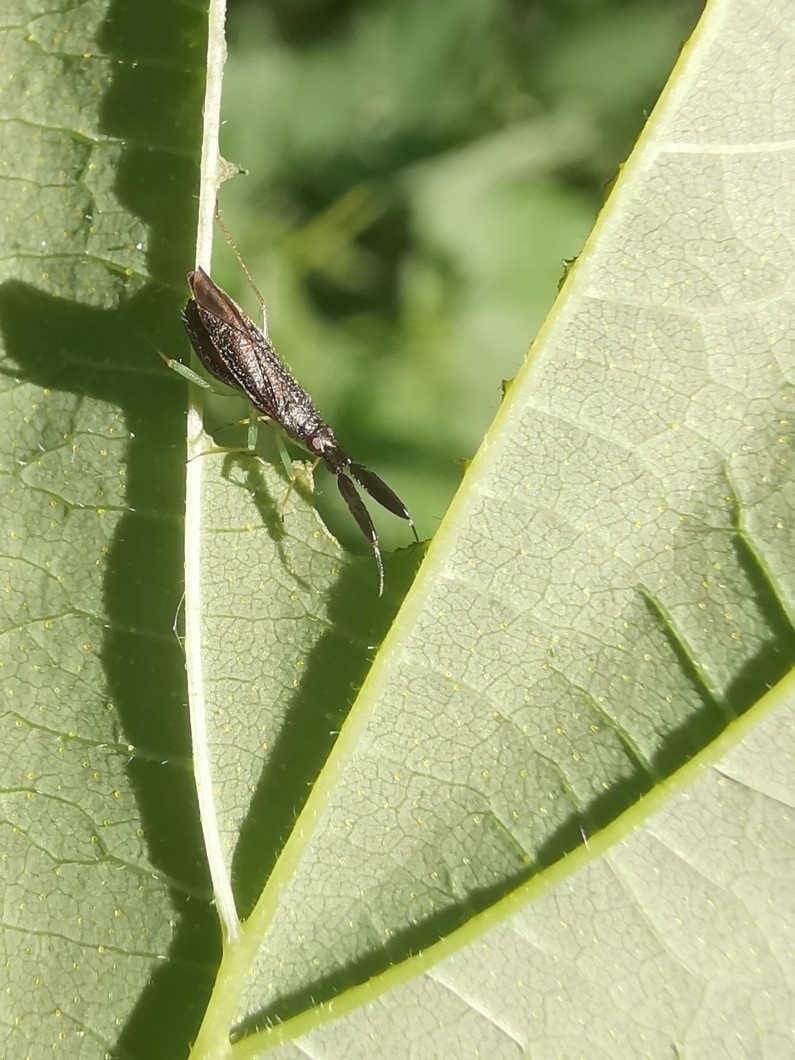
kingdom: Animalia
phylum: Arthropoda
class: Insecta
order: Hemiptera
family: Miridae
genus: Heterotoma
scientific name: Heterotoma planicornis
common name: Plant bug
